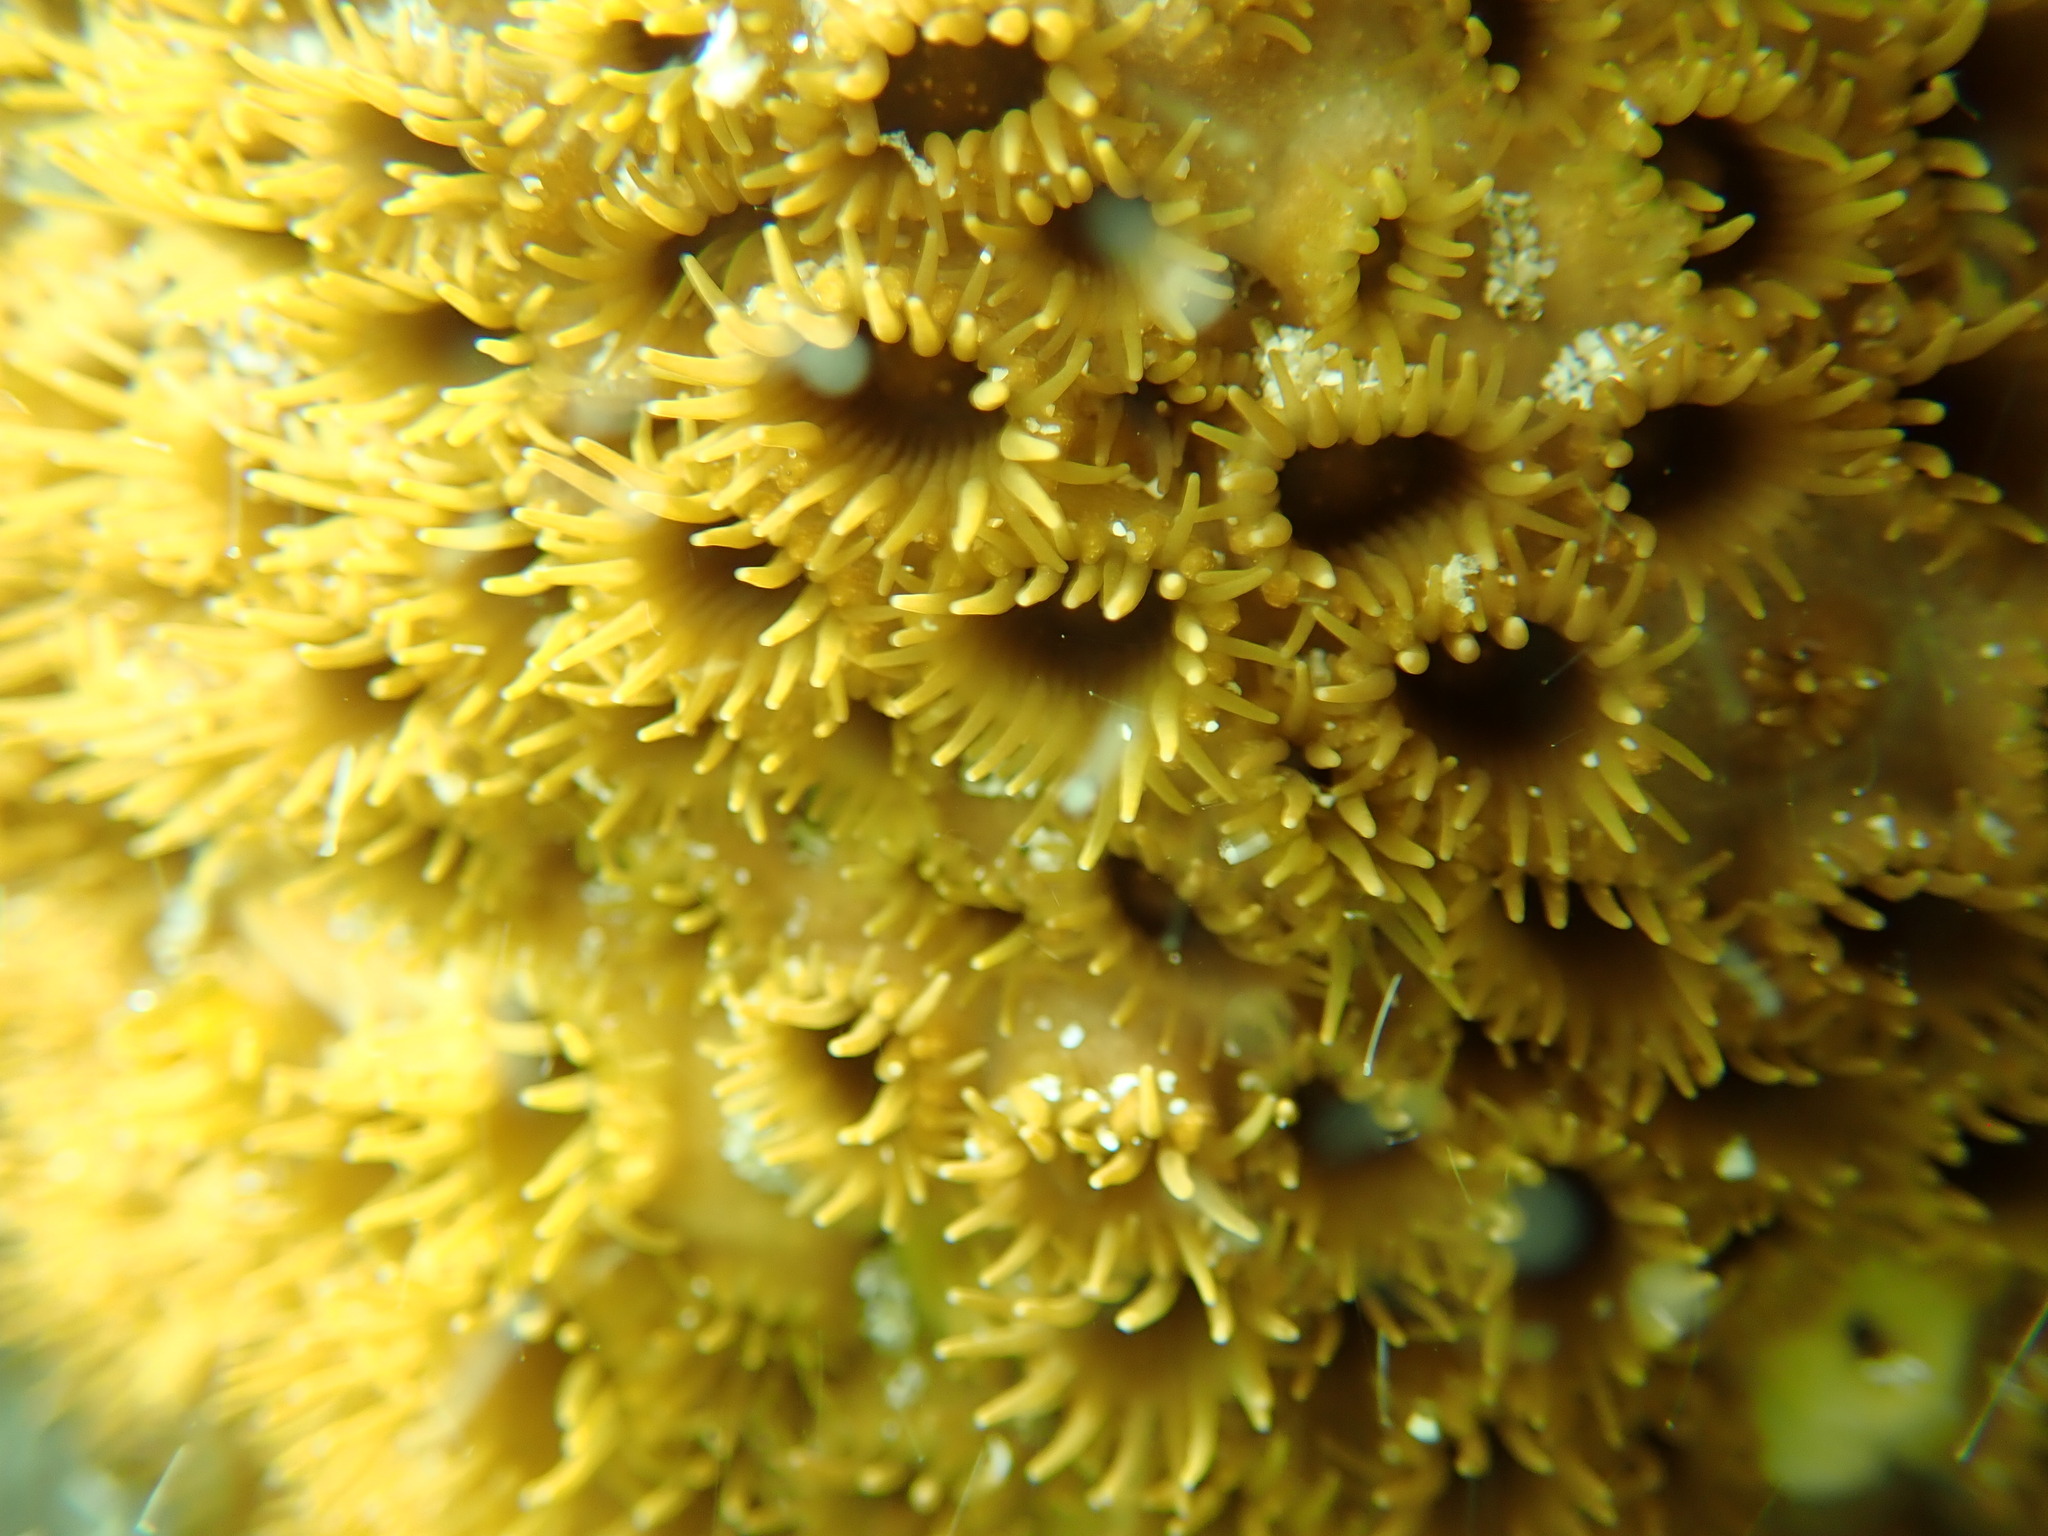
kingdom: Animalia
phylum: Cnidaria
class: Anthozoa
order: Zoantharia
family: Sphenopidae
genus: Palythoa
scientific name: Palythoa tuberculosa
